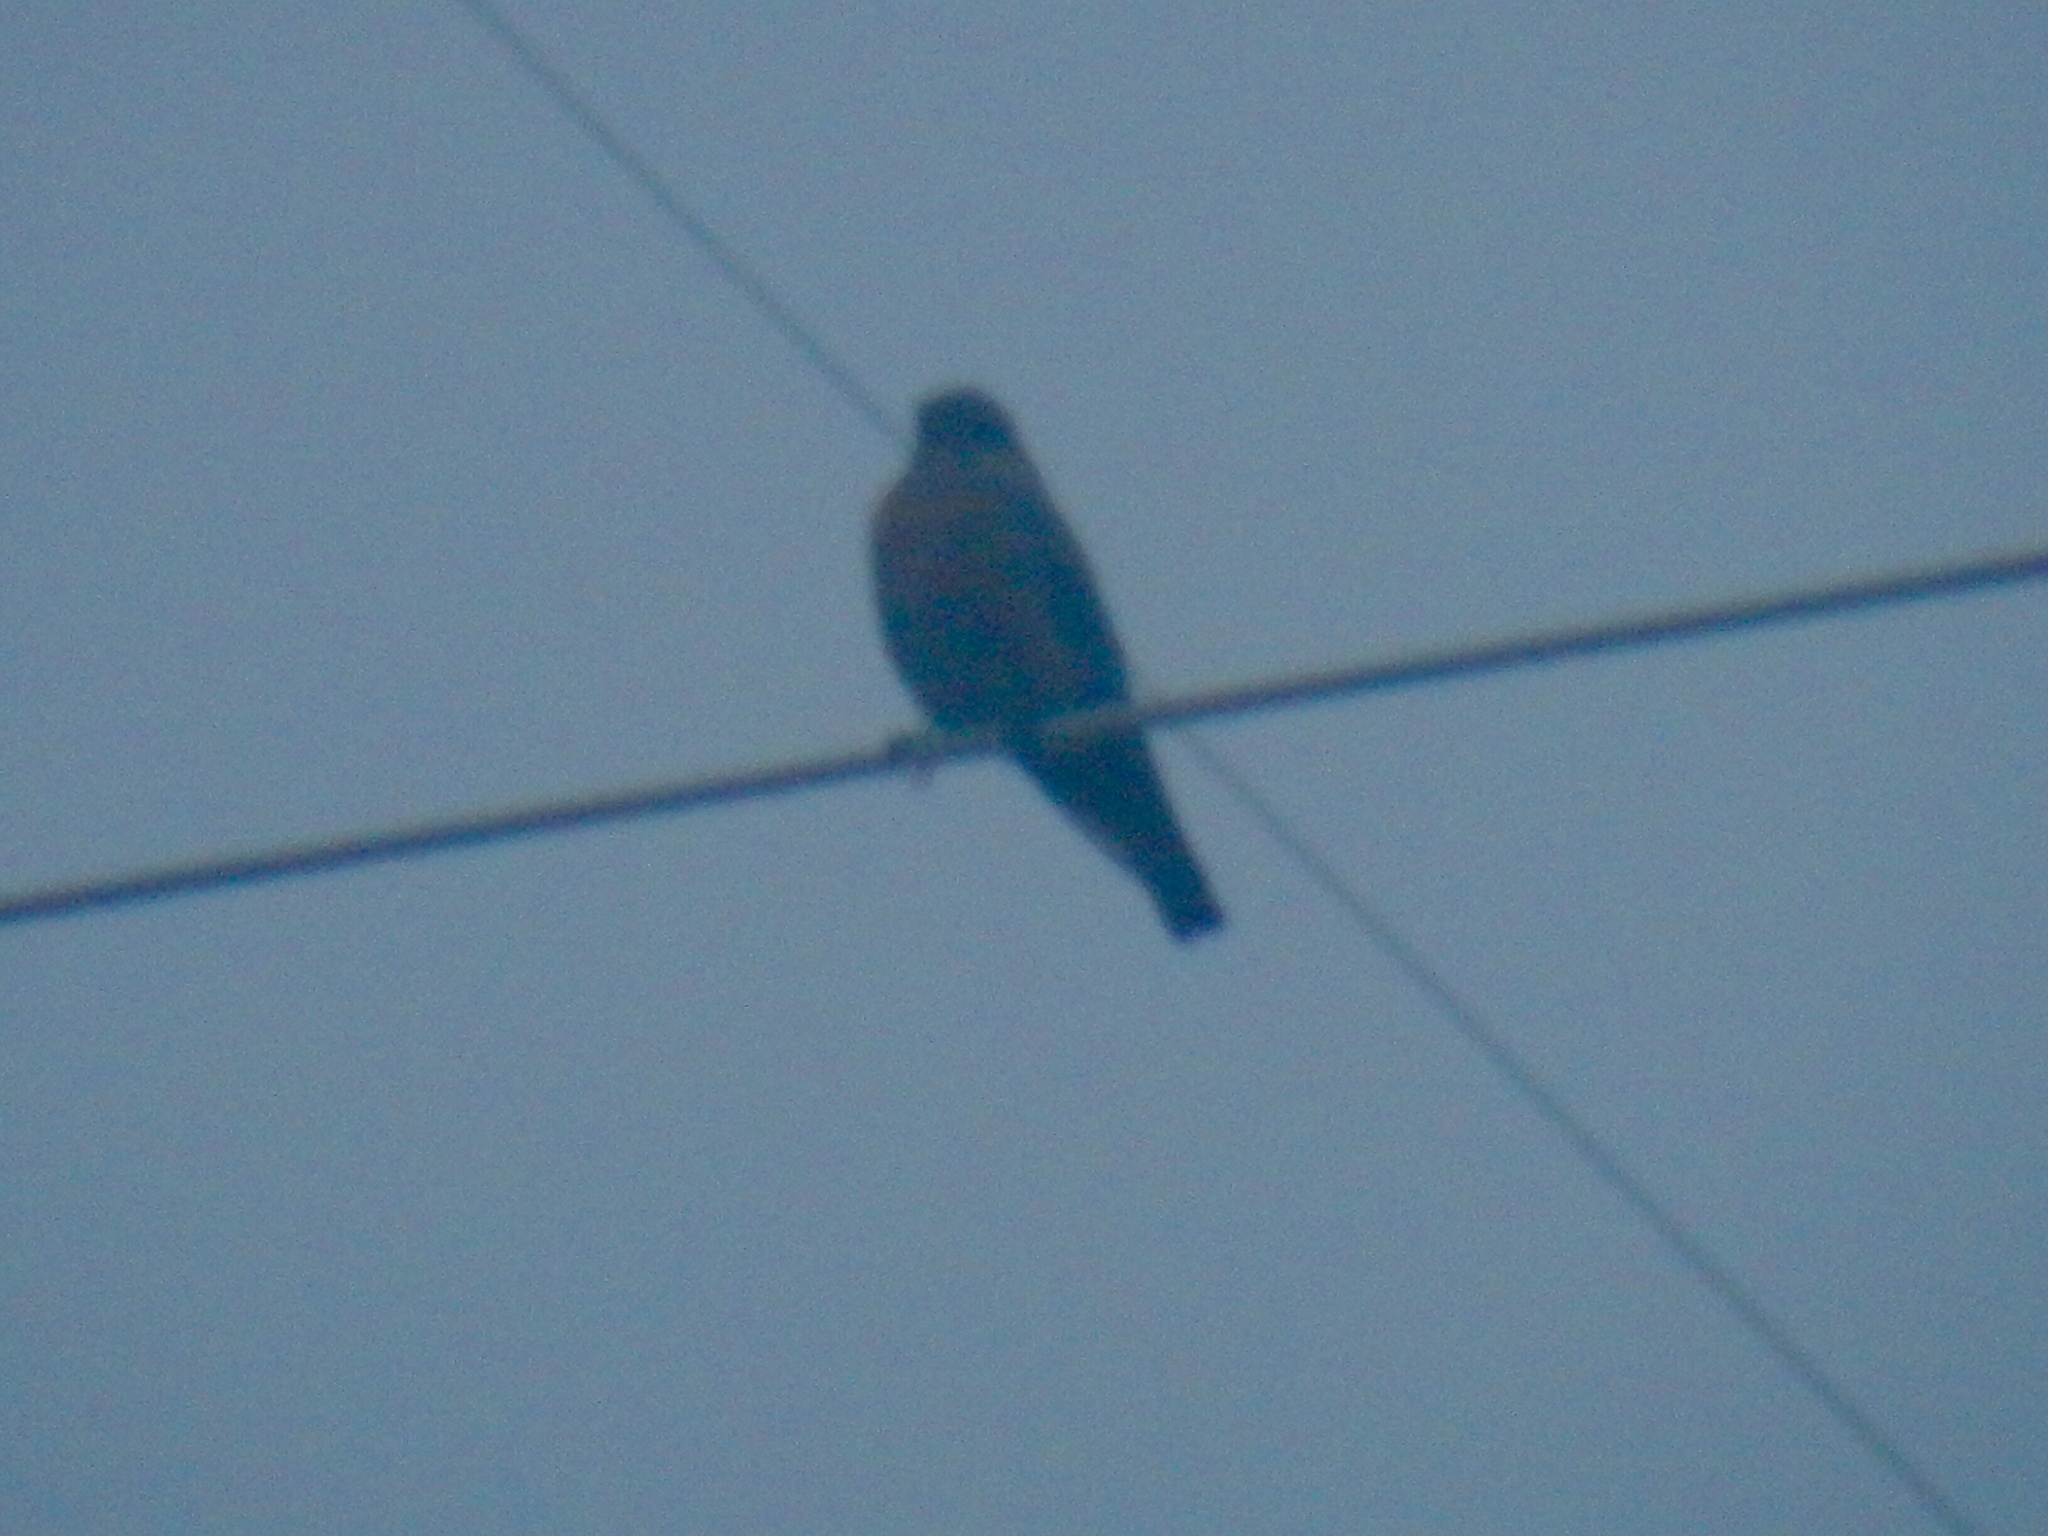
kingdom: Animalia
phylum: Chordata
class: Aves
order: Passeriformes
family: Turdidae
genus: Sialia
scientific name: Sialia mexicana
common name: Western bluebird
